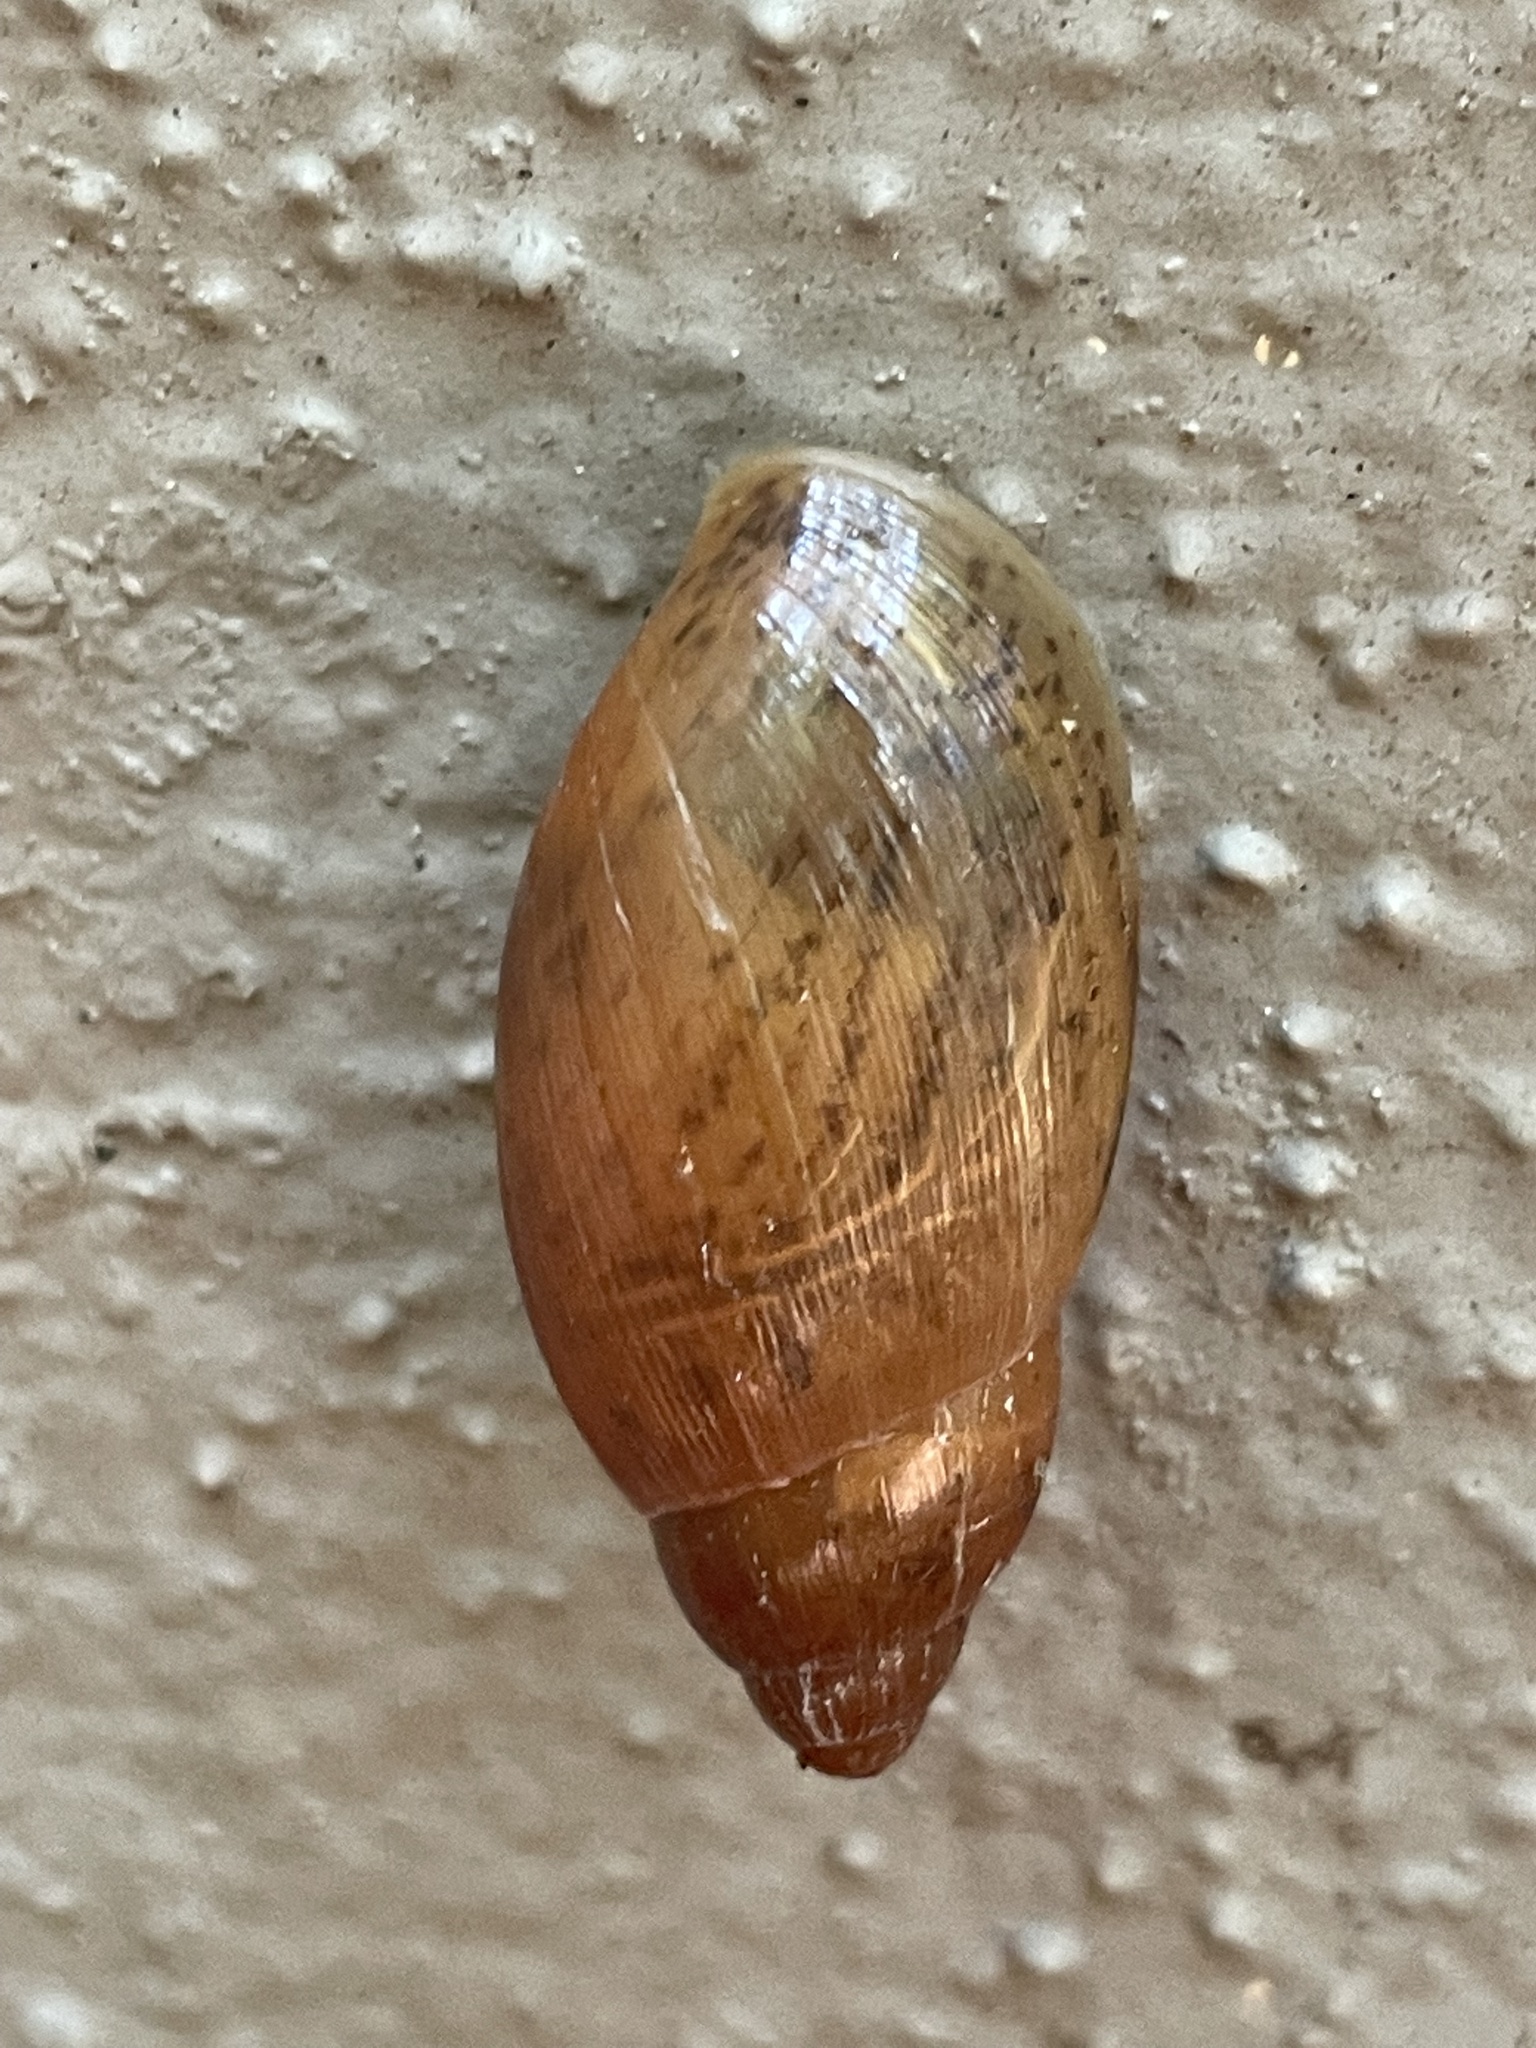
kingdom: Animalia
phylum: Mollusca
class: Gastropoda
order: Stylommatophora
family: Spiraxidae
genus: Euglandina
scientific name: Euglandina rosea
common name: Rosy wolfsnail
